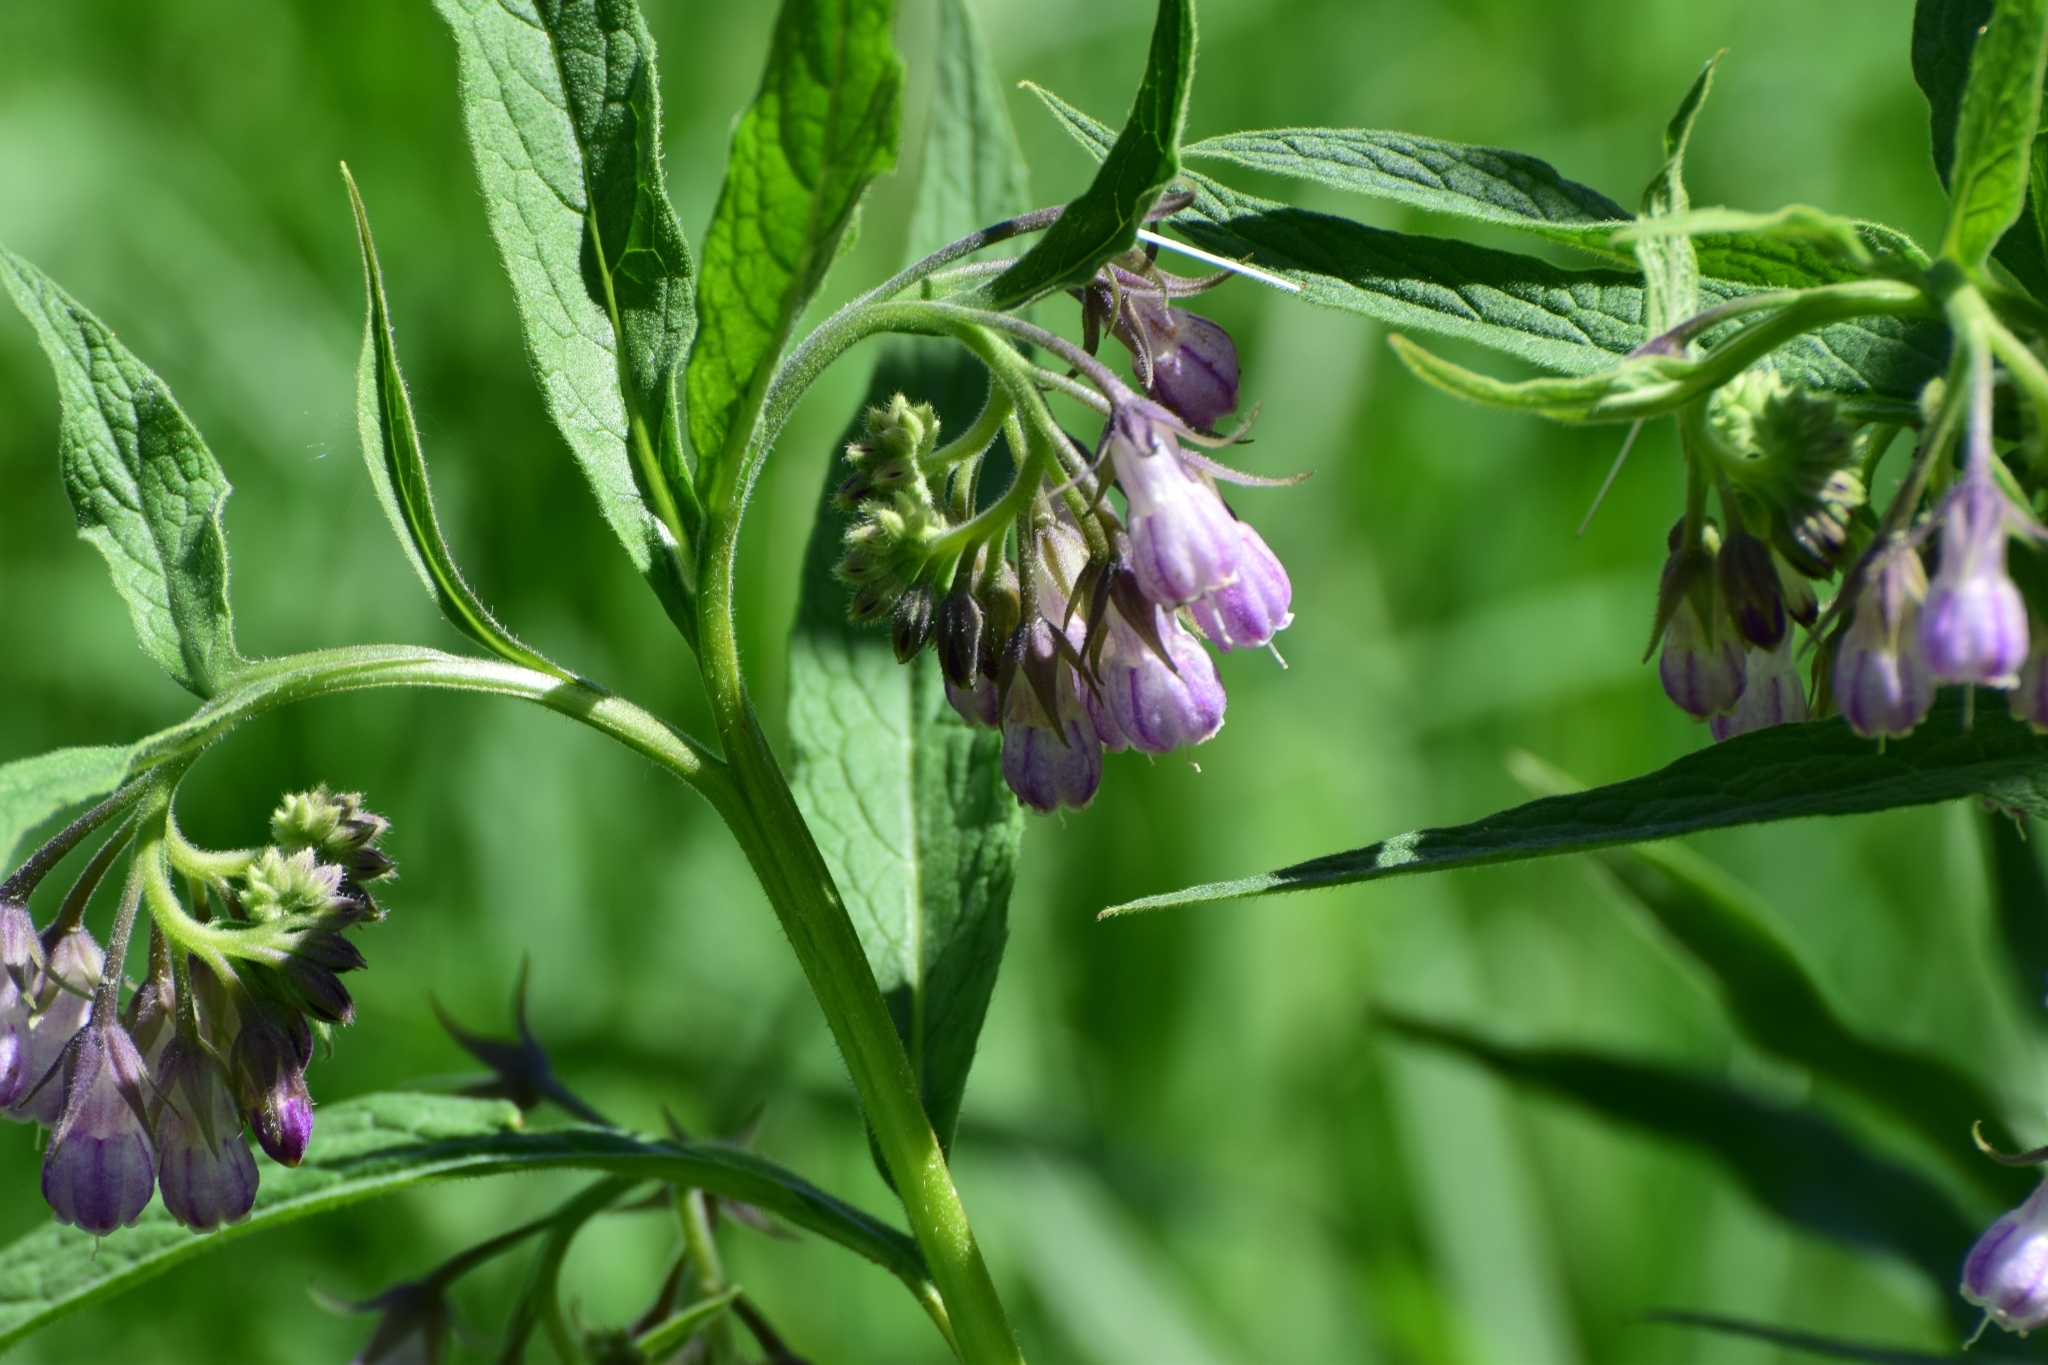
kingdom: Plantae
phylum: Tracheophyta
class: Magnoliopsida
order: Boraginales
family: Boraginaceae
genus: Symphytum
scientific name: Symphytum officinale
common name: Common comfrey
